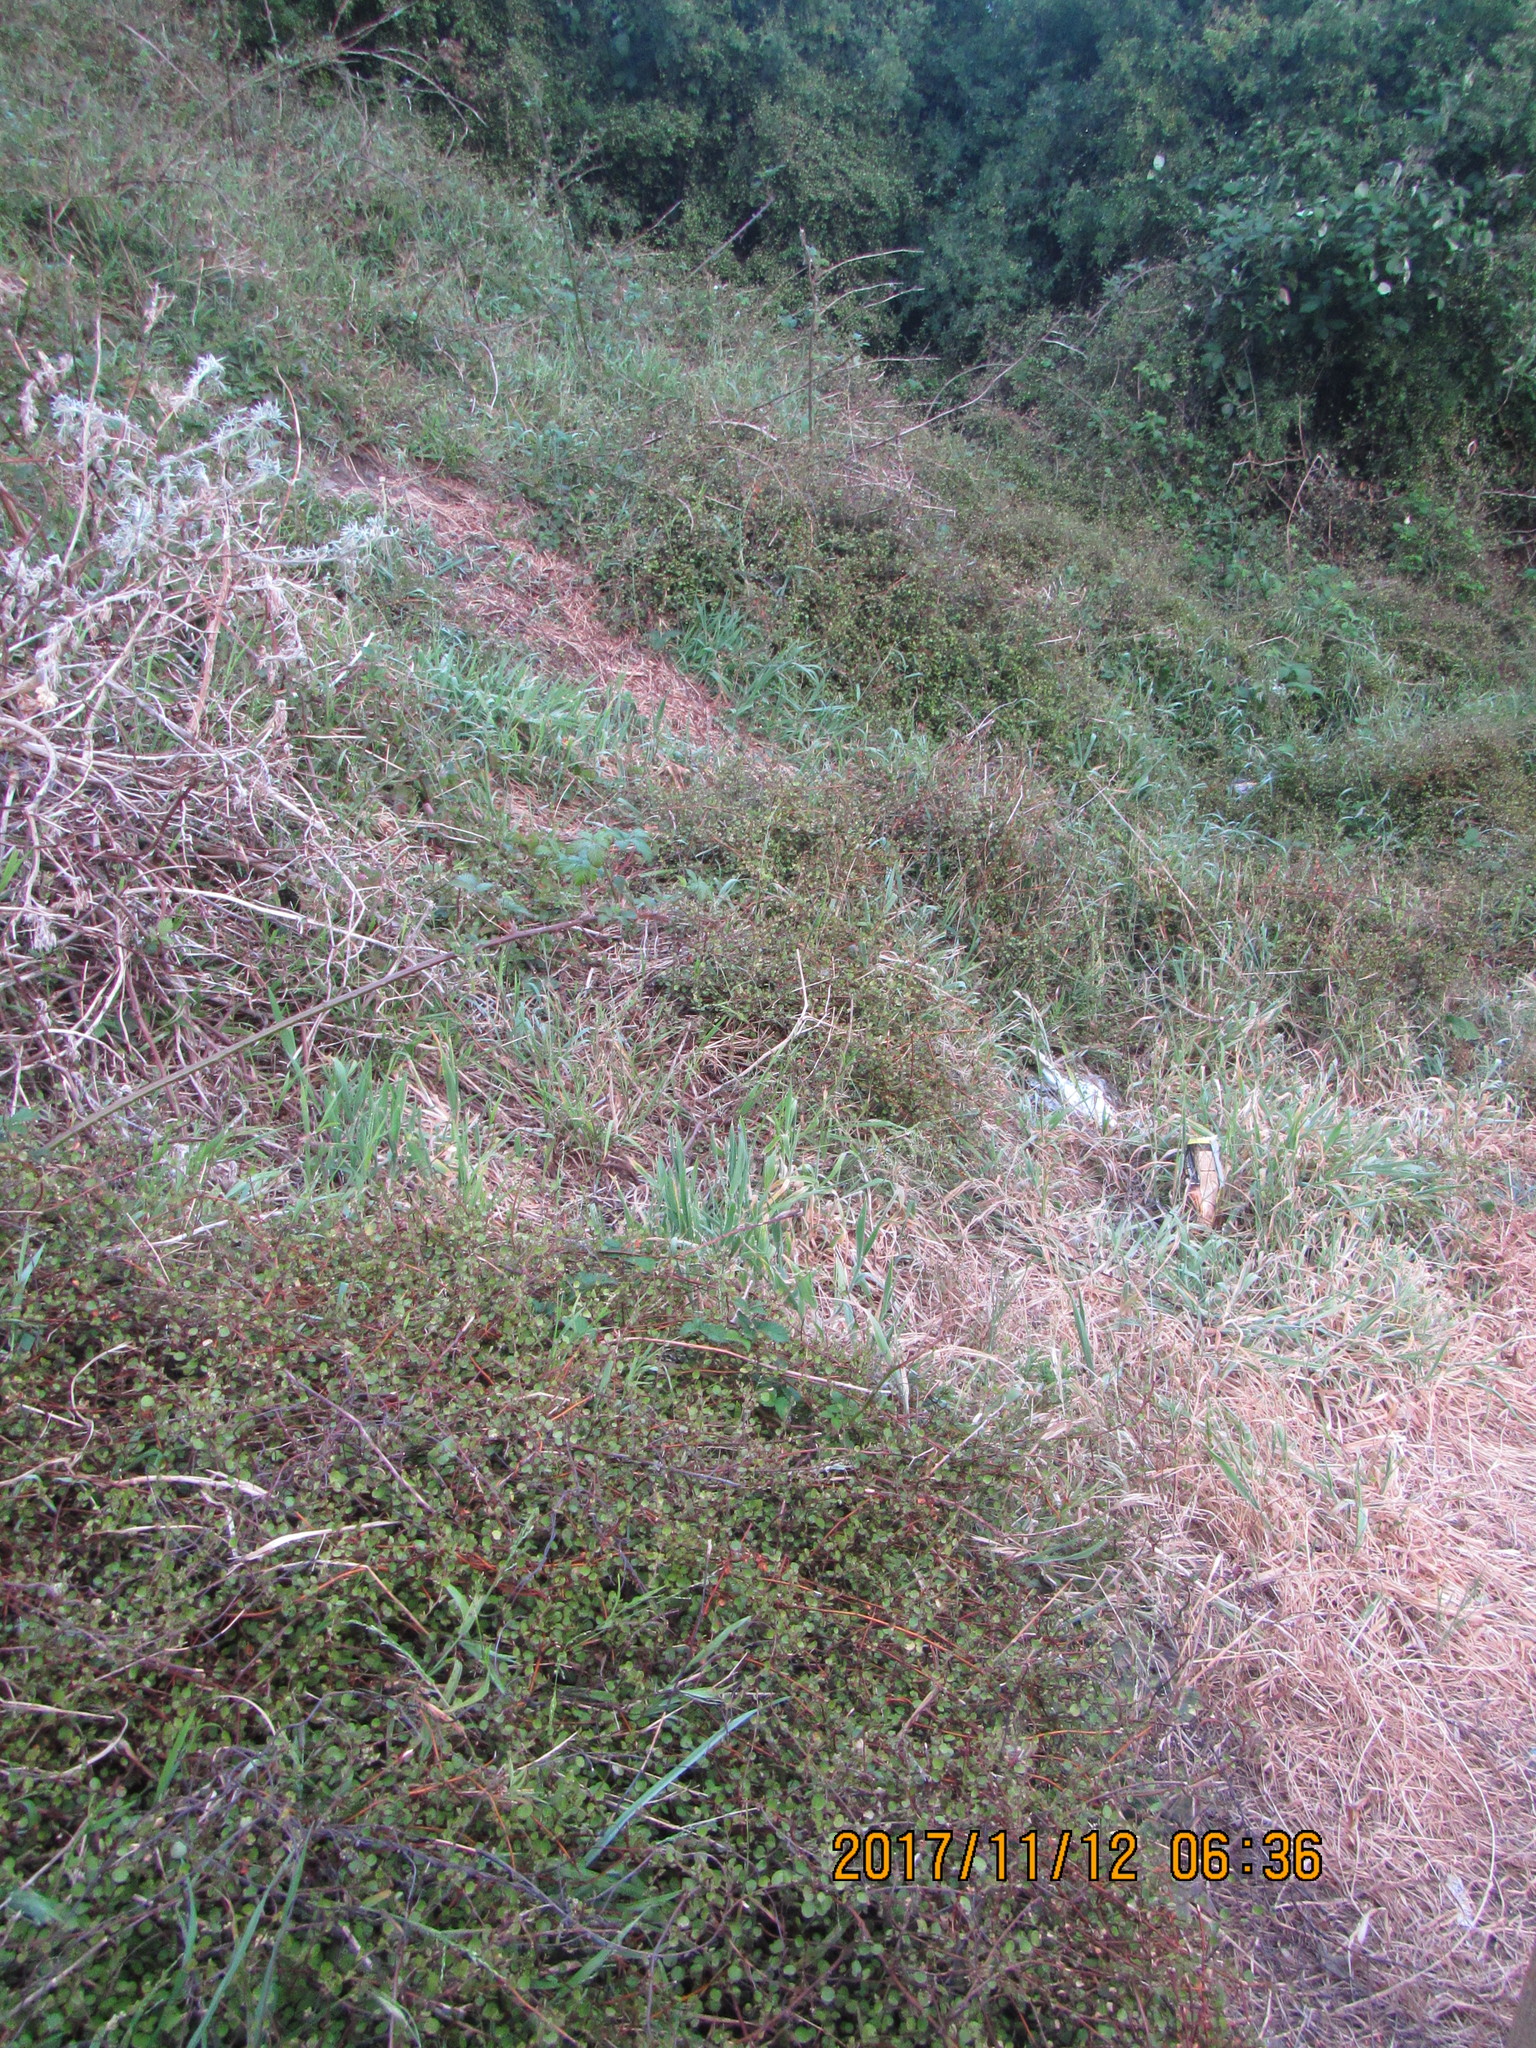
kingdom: Plantae
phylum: Tracheophyta
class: Magnoliopsida
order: Caryophyllales
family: Polygonaceae
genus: Muehlenbeckia
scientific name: Muehlenbeckia complexa
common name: Wireplant
